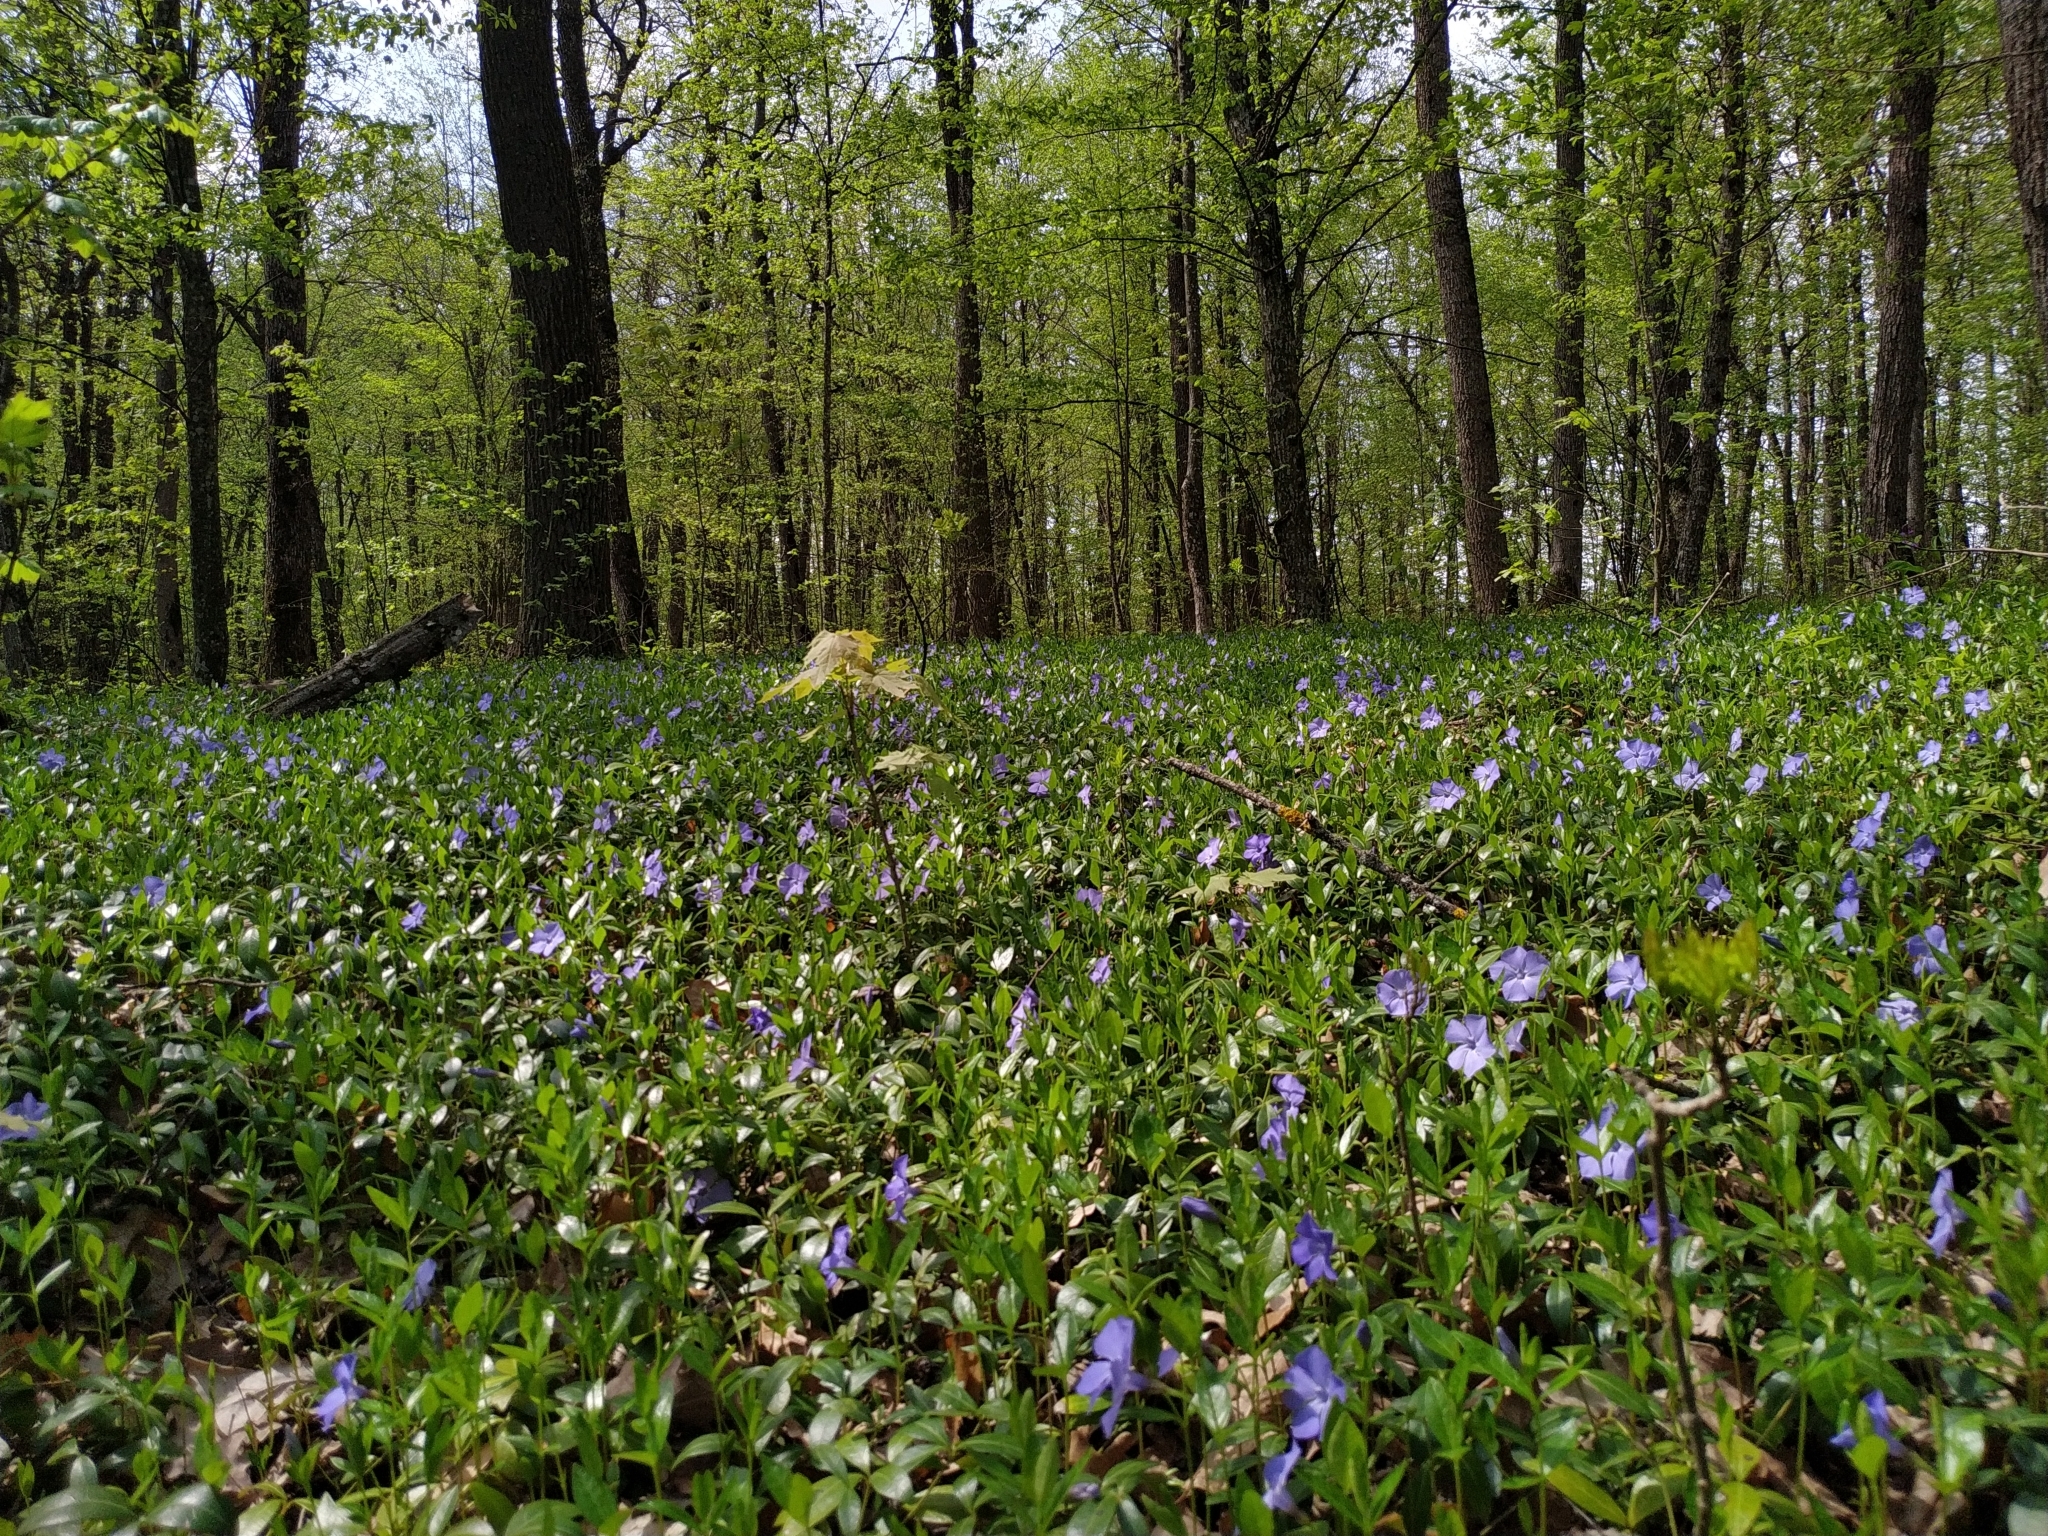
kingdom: Plantae
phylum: Tracheophyta
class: Magnoliopsida
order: Gentianales
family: Apocynaceae
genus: Vinca
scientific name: Vinca minor
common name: Lesser periwinkle
